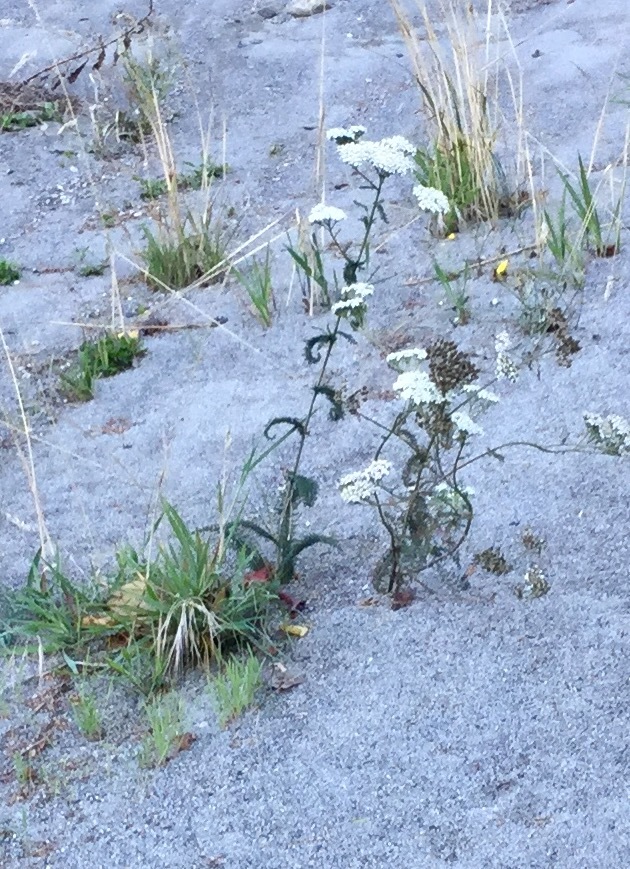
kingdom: Plantae
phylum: Tracheophyta
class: Magnoliopsida
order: Asterales
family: Asteraceae
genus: Achillea
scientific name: Achillea millefolium
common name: Yarrow
